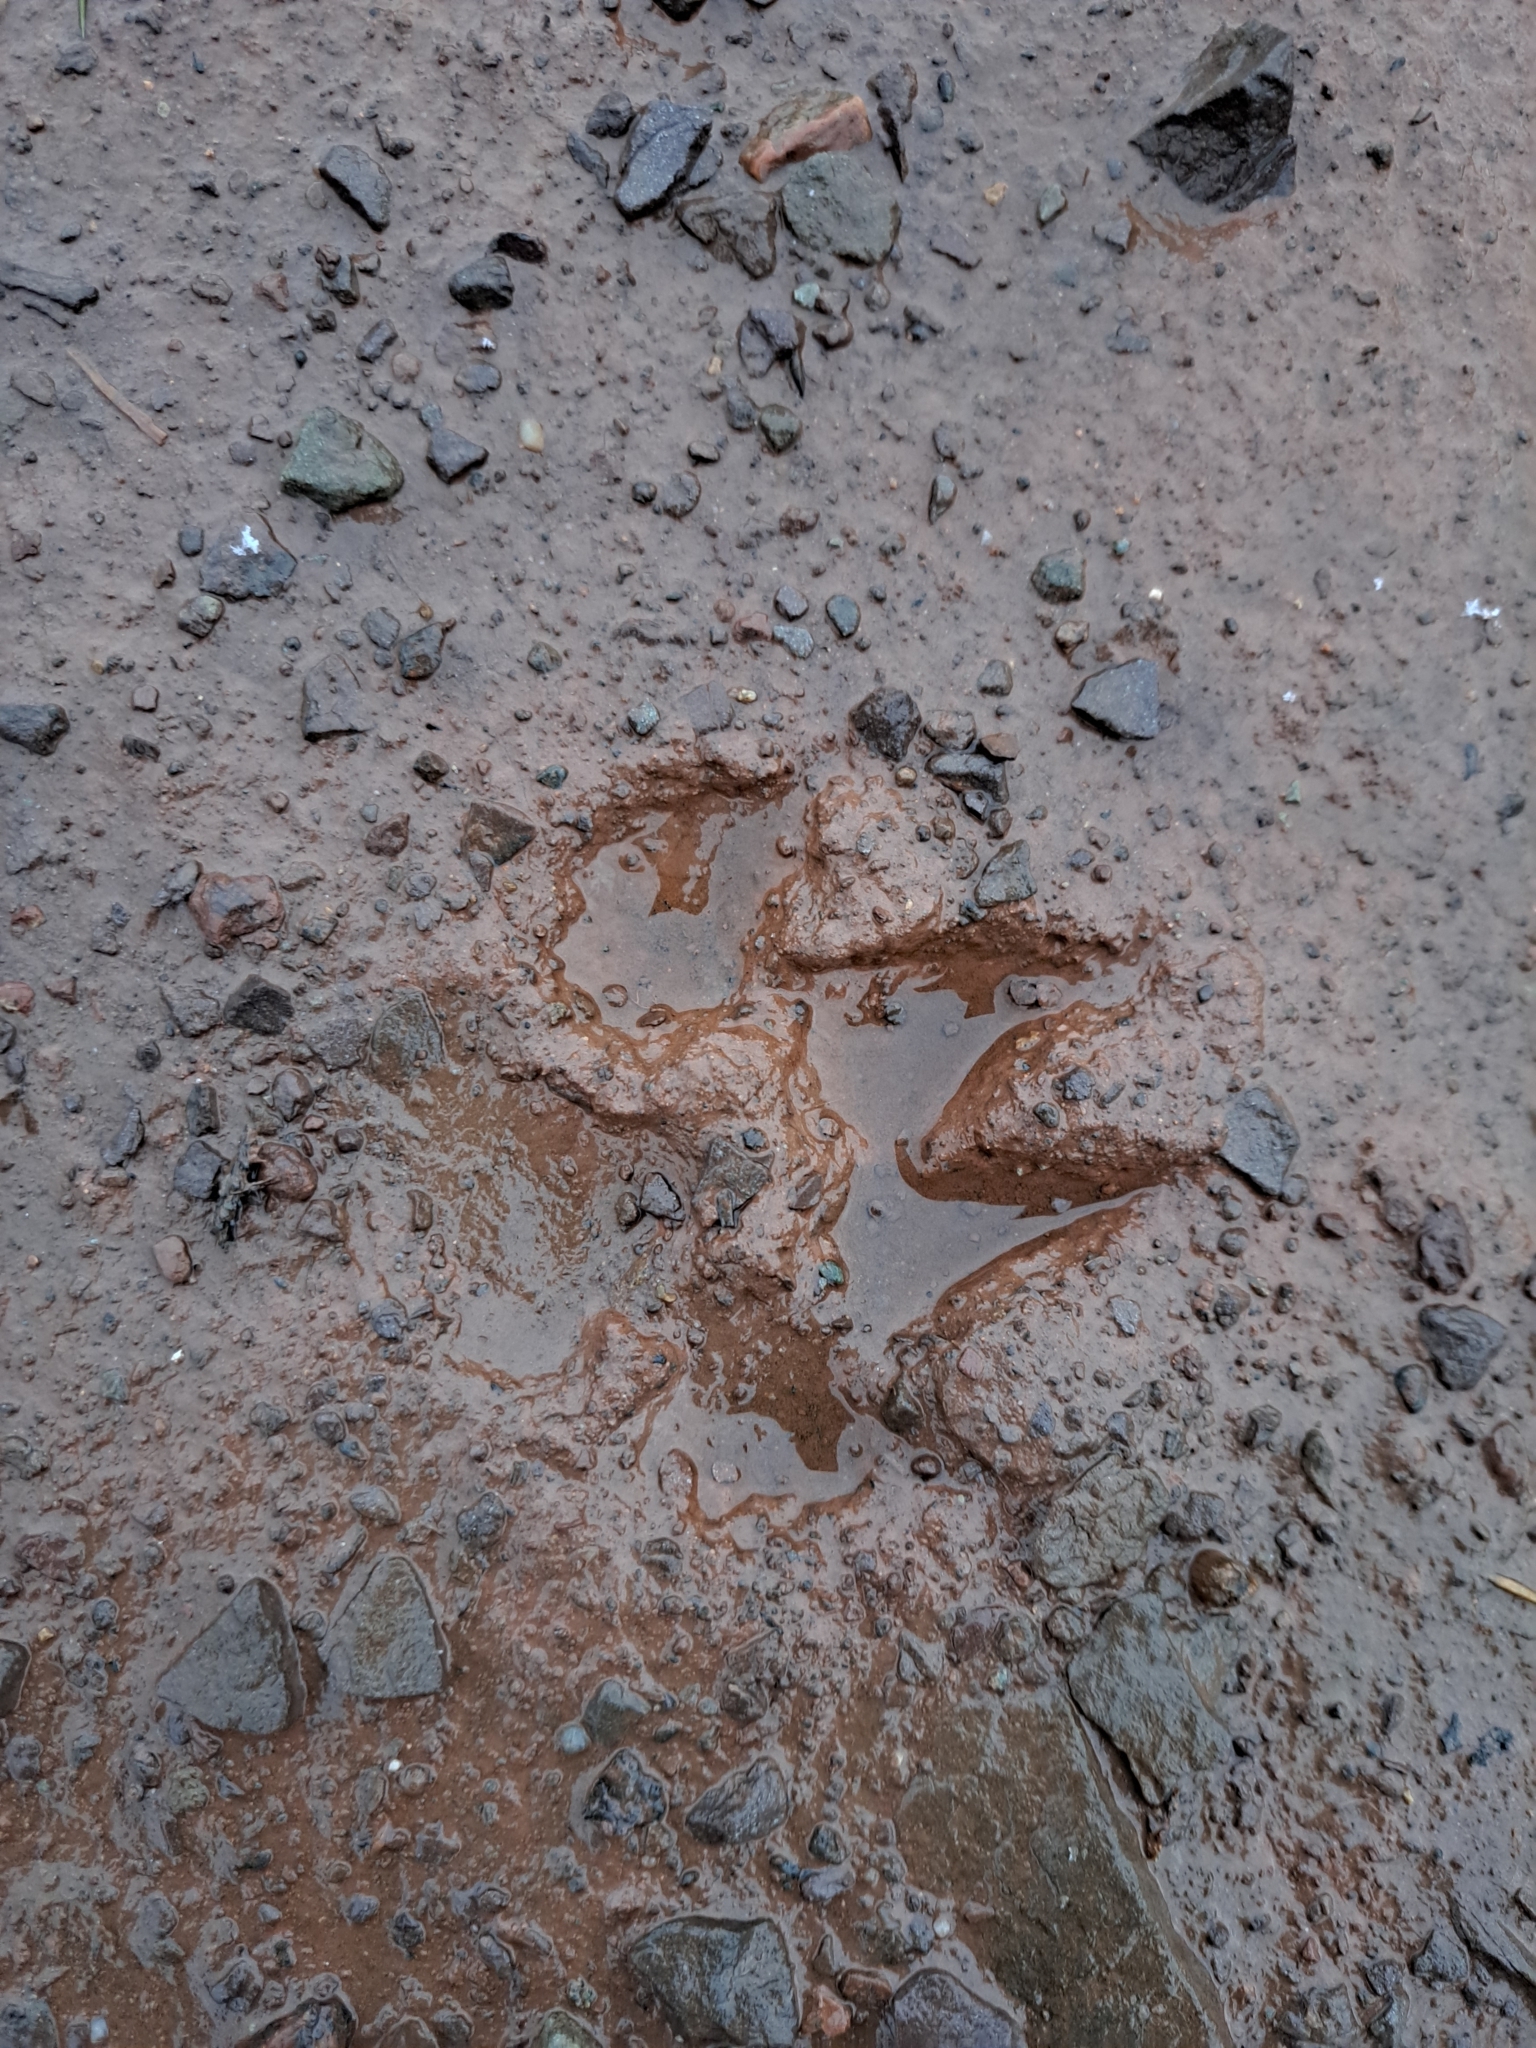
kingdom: Animalia
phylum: Chordata
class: Mammalia
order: Carnivora
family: Canidae
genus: Canis
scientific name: Canis latrans
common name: Coyote
